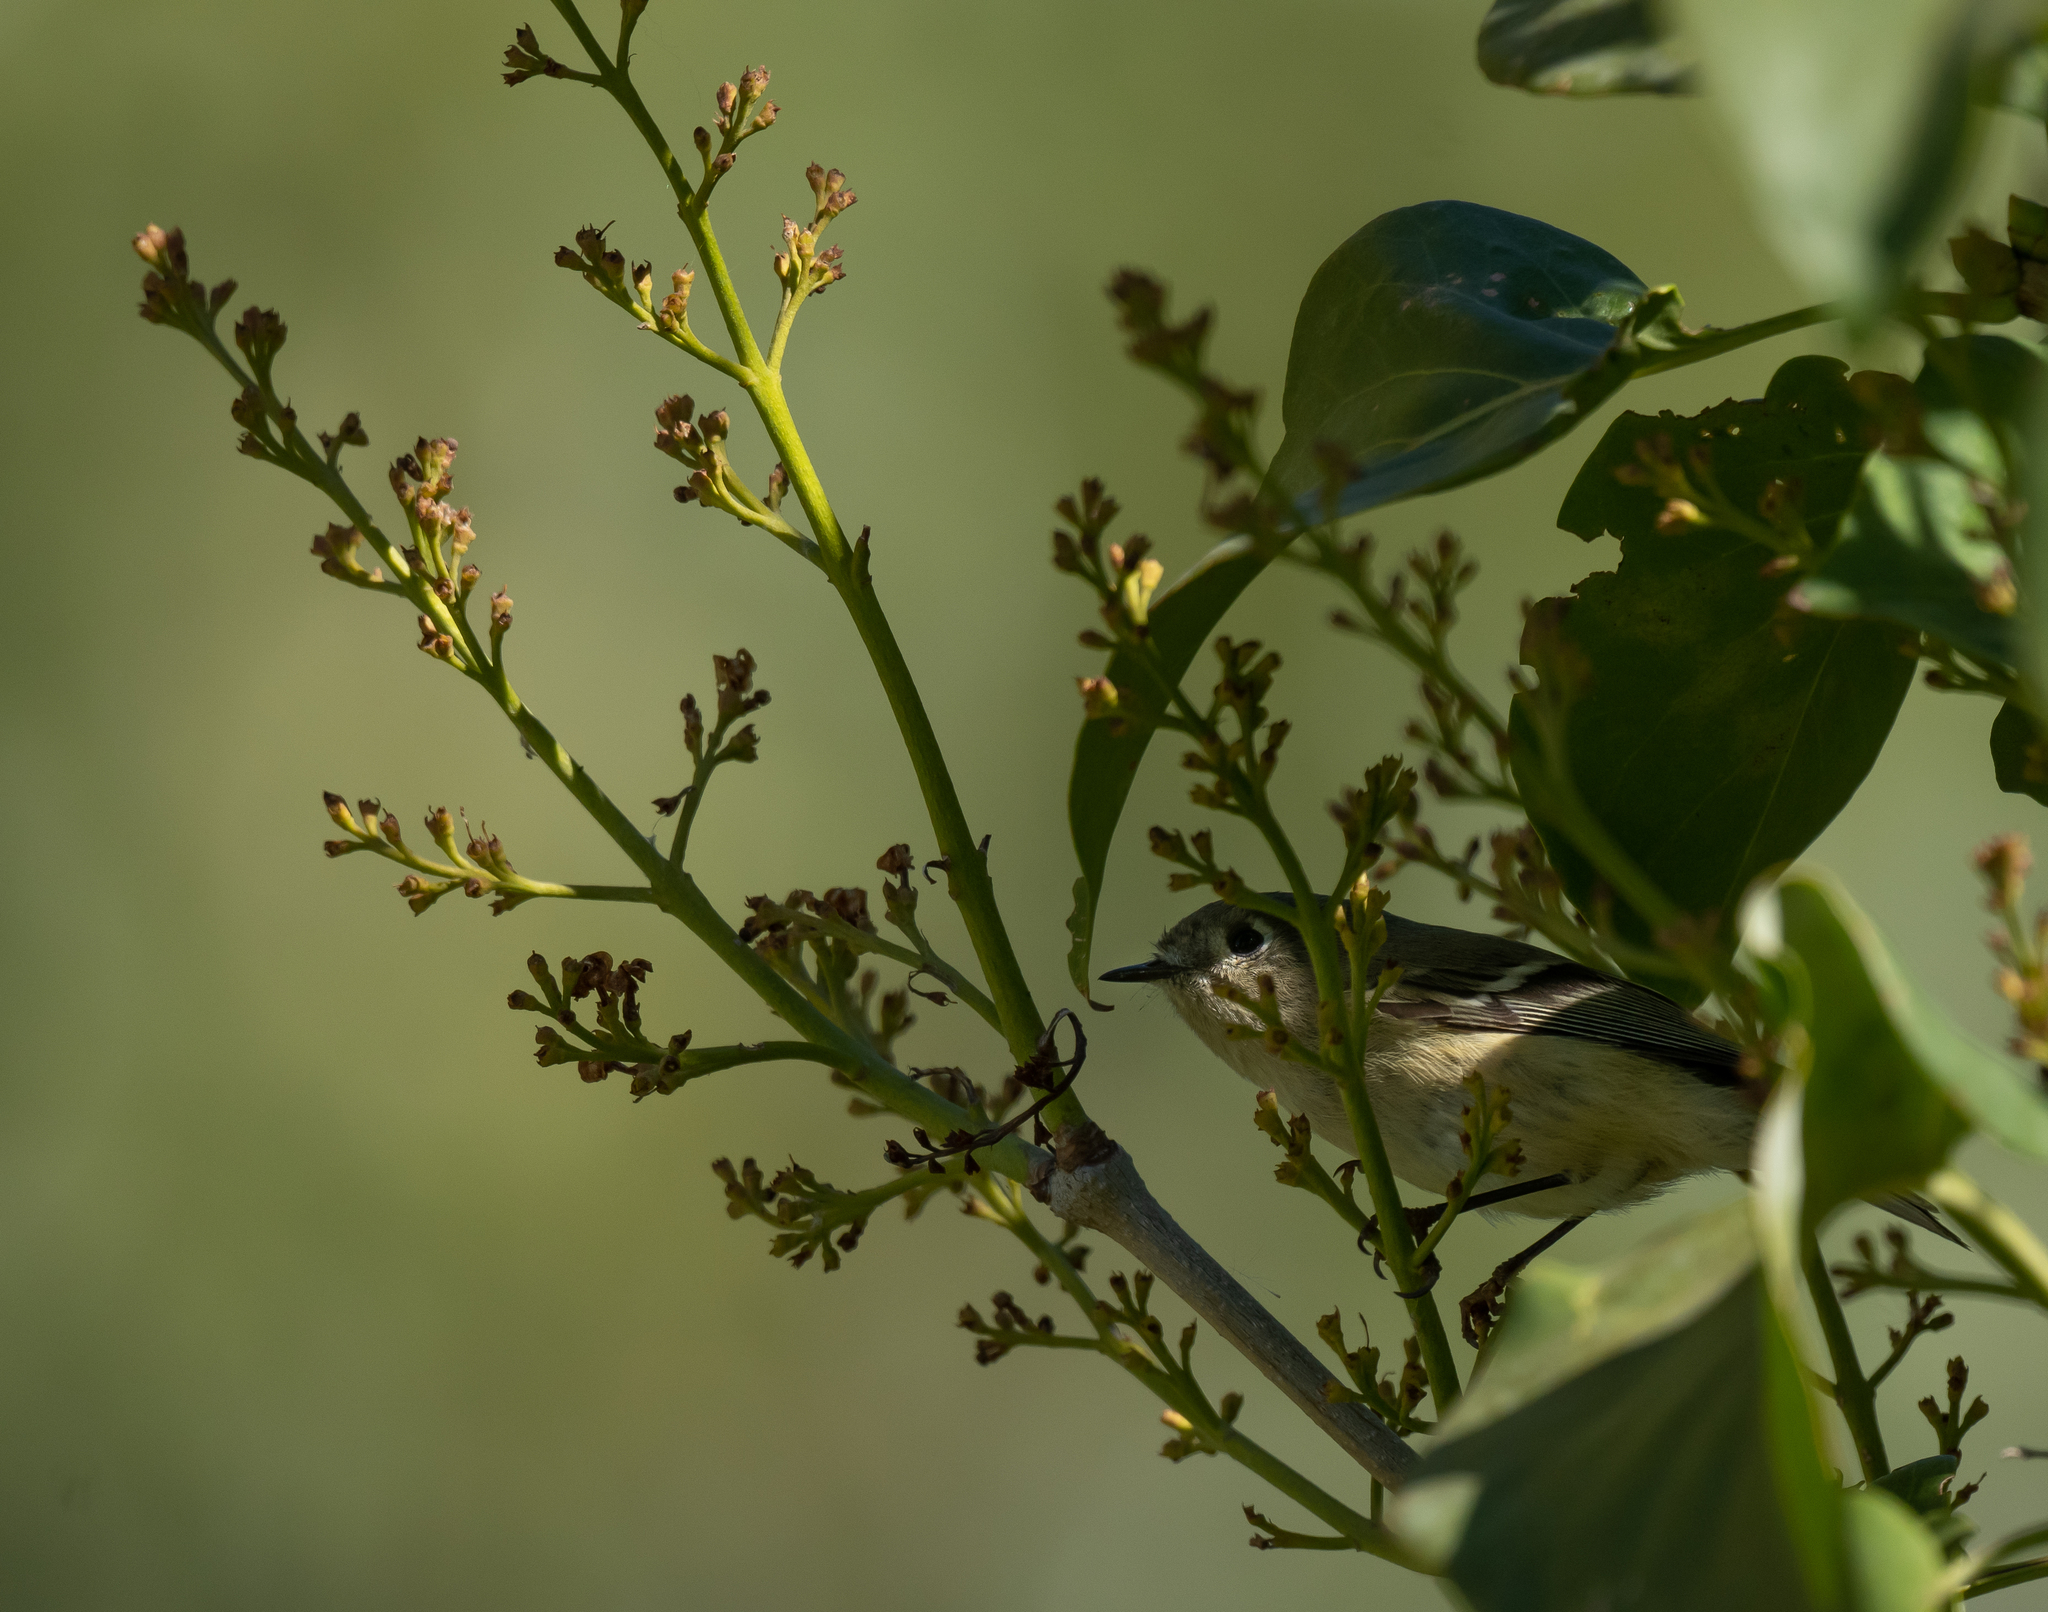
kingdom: Animalia
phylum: Chordata
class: Aves
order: Passeriformes
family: Regulidae
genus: Regulus
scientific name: Regulus calendula
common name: Ruby-crowned kinglet
